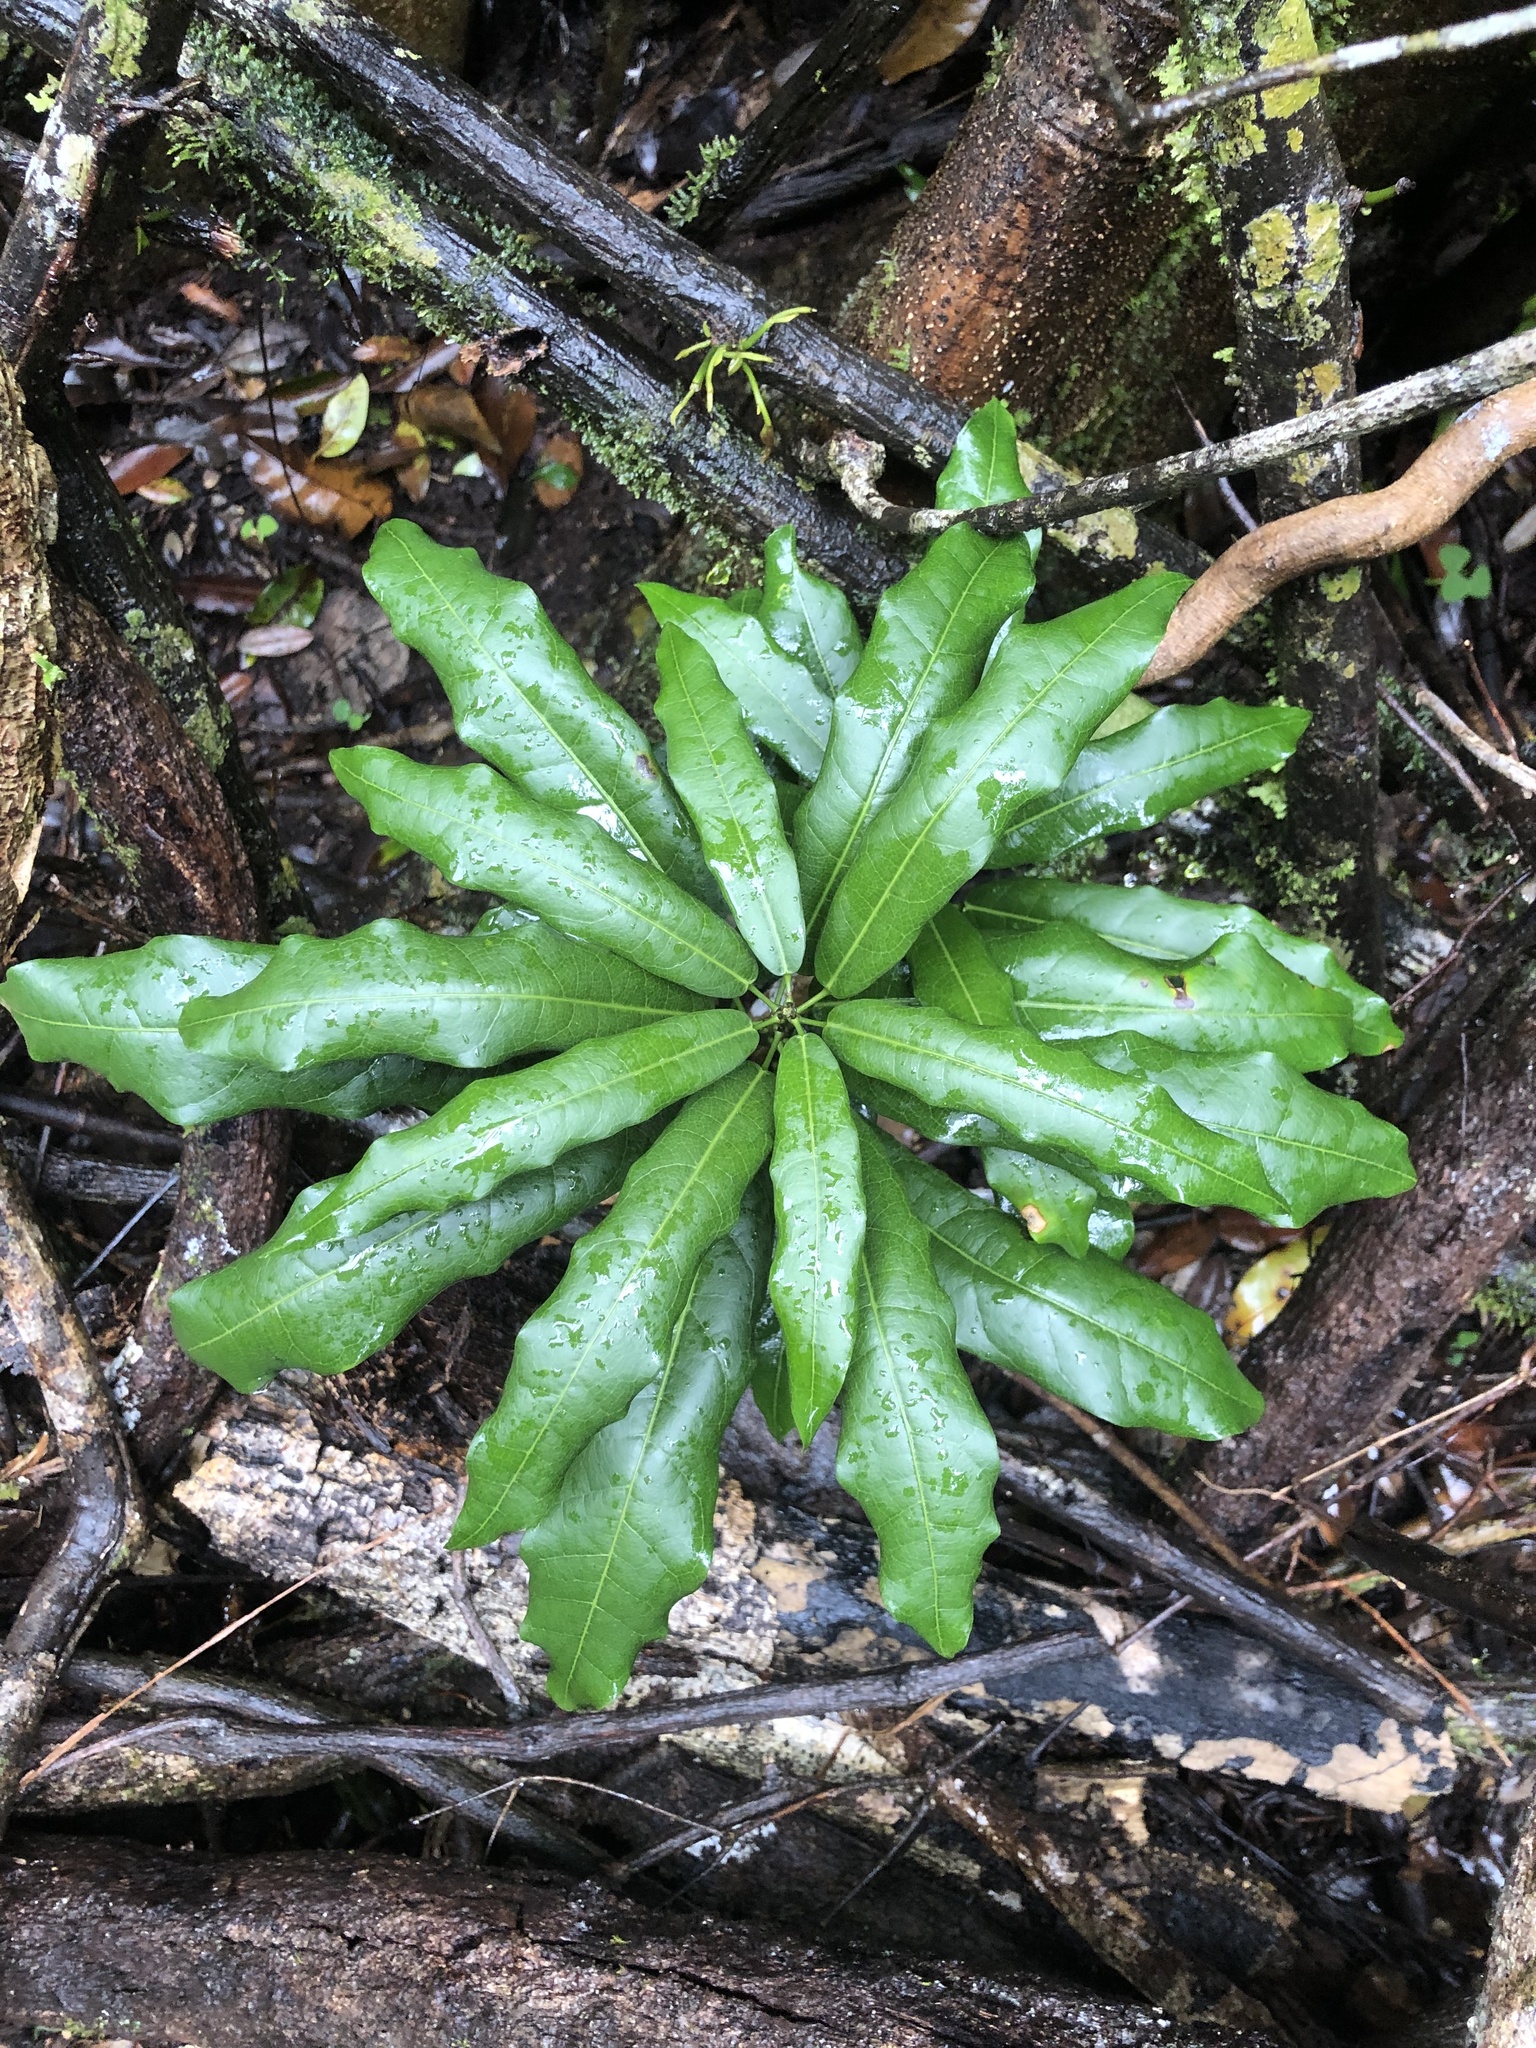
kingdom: Plantae
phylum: Tracheophyta
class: Magnoliopsida
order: Ranunculales
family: Menispermaceae
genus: Carronia
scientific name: Carronia multisepalea
